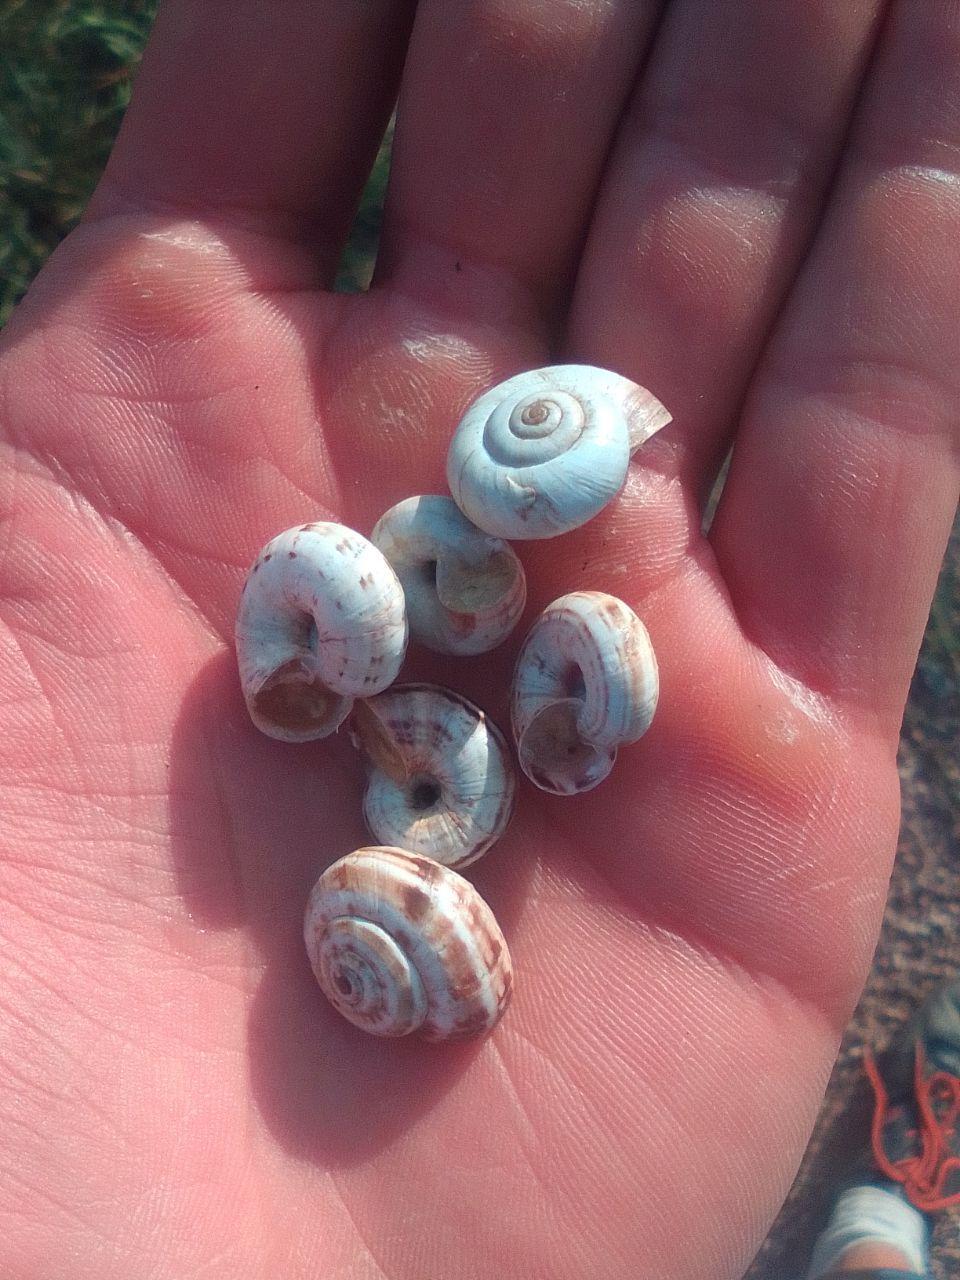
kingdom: Animalia
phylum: Mollusca
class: Gastropoda
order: Stylommatophora
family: Geomitridae
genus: Xeropicta
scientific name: Xeropicta derbentina
